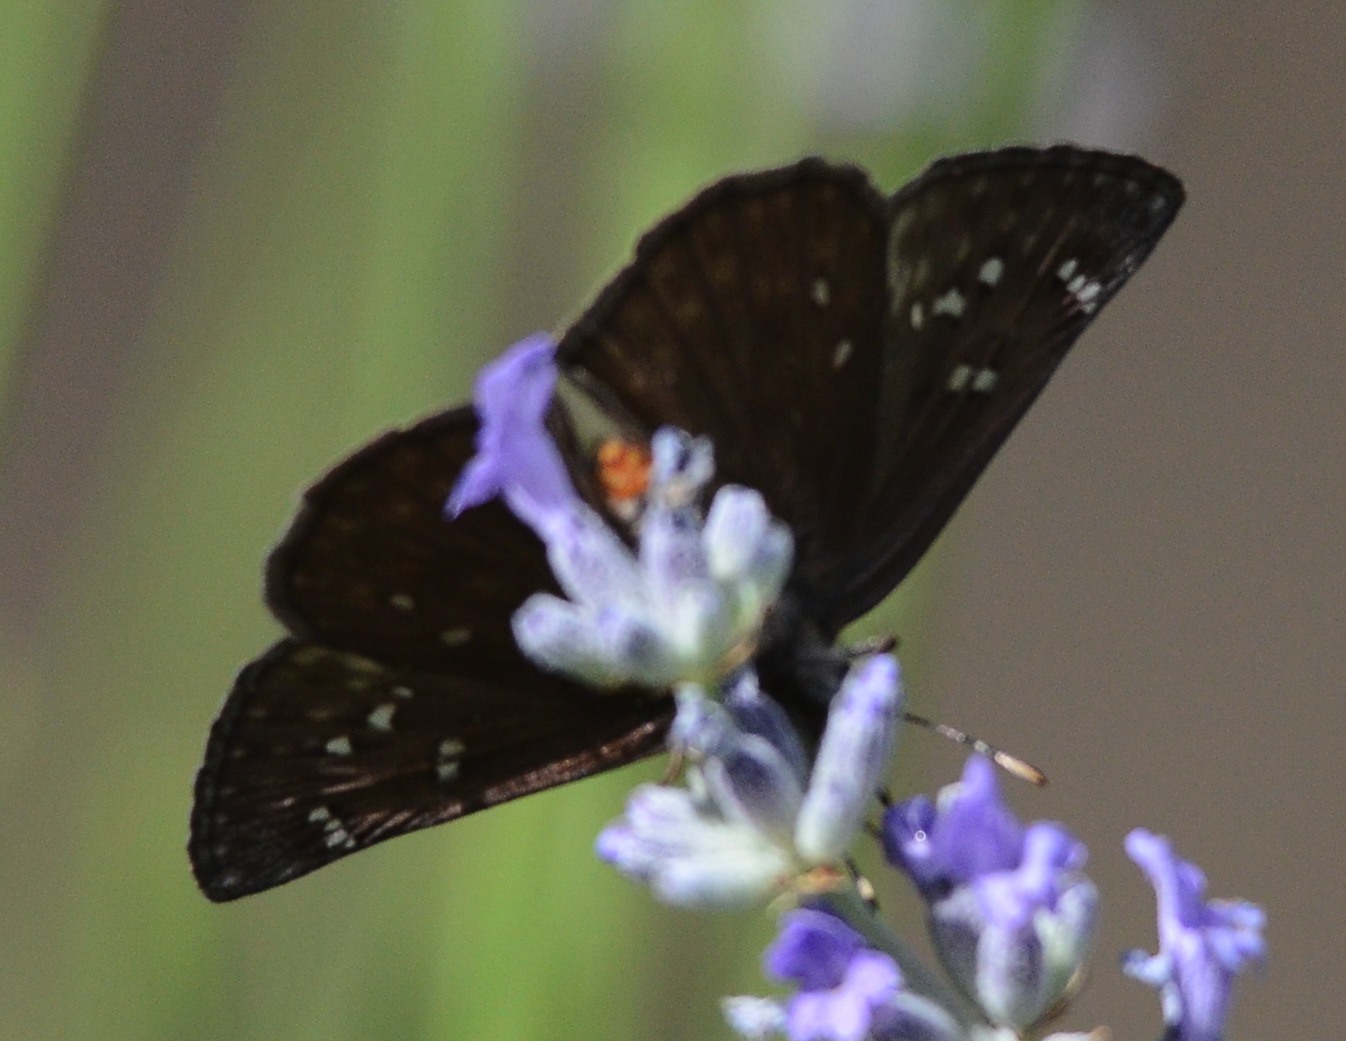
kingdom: Animalia
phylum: Arthropoda
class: Insecta
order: Lepidoptera
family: Hesperiidae
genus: Erynnis
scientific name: Erynnis propertius
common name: Propertius duskywing
